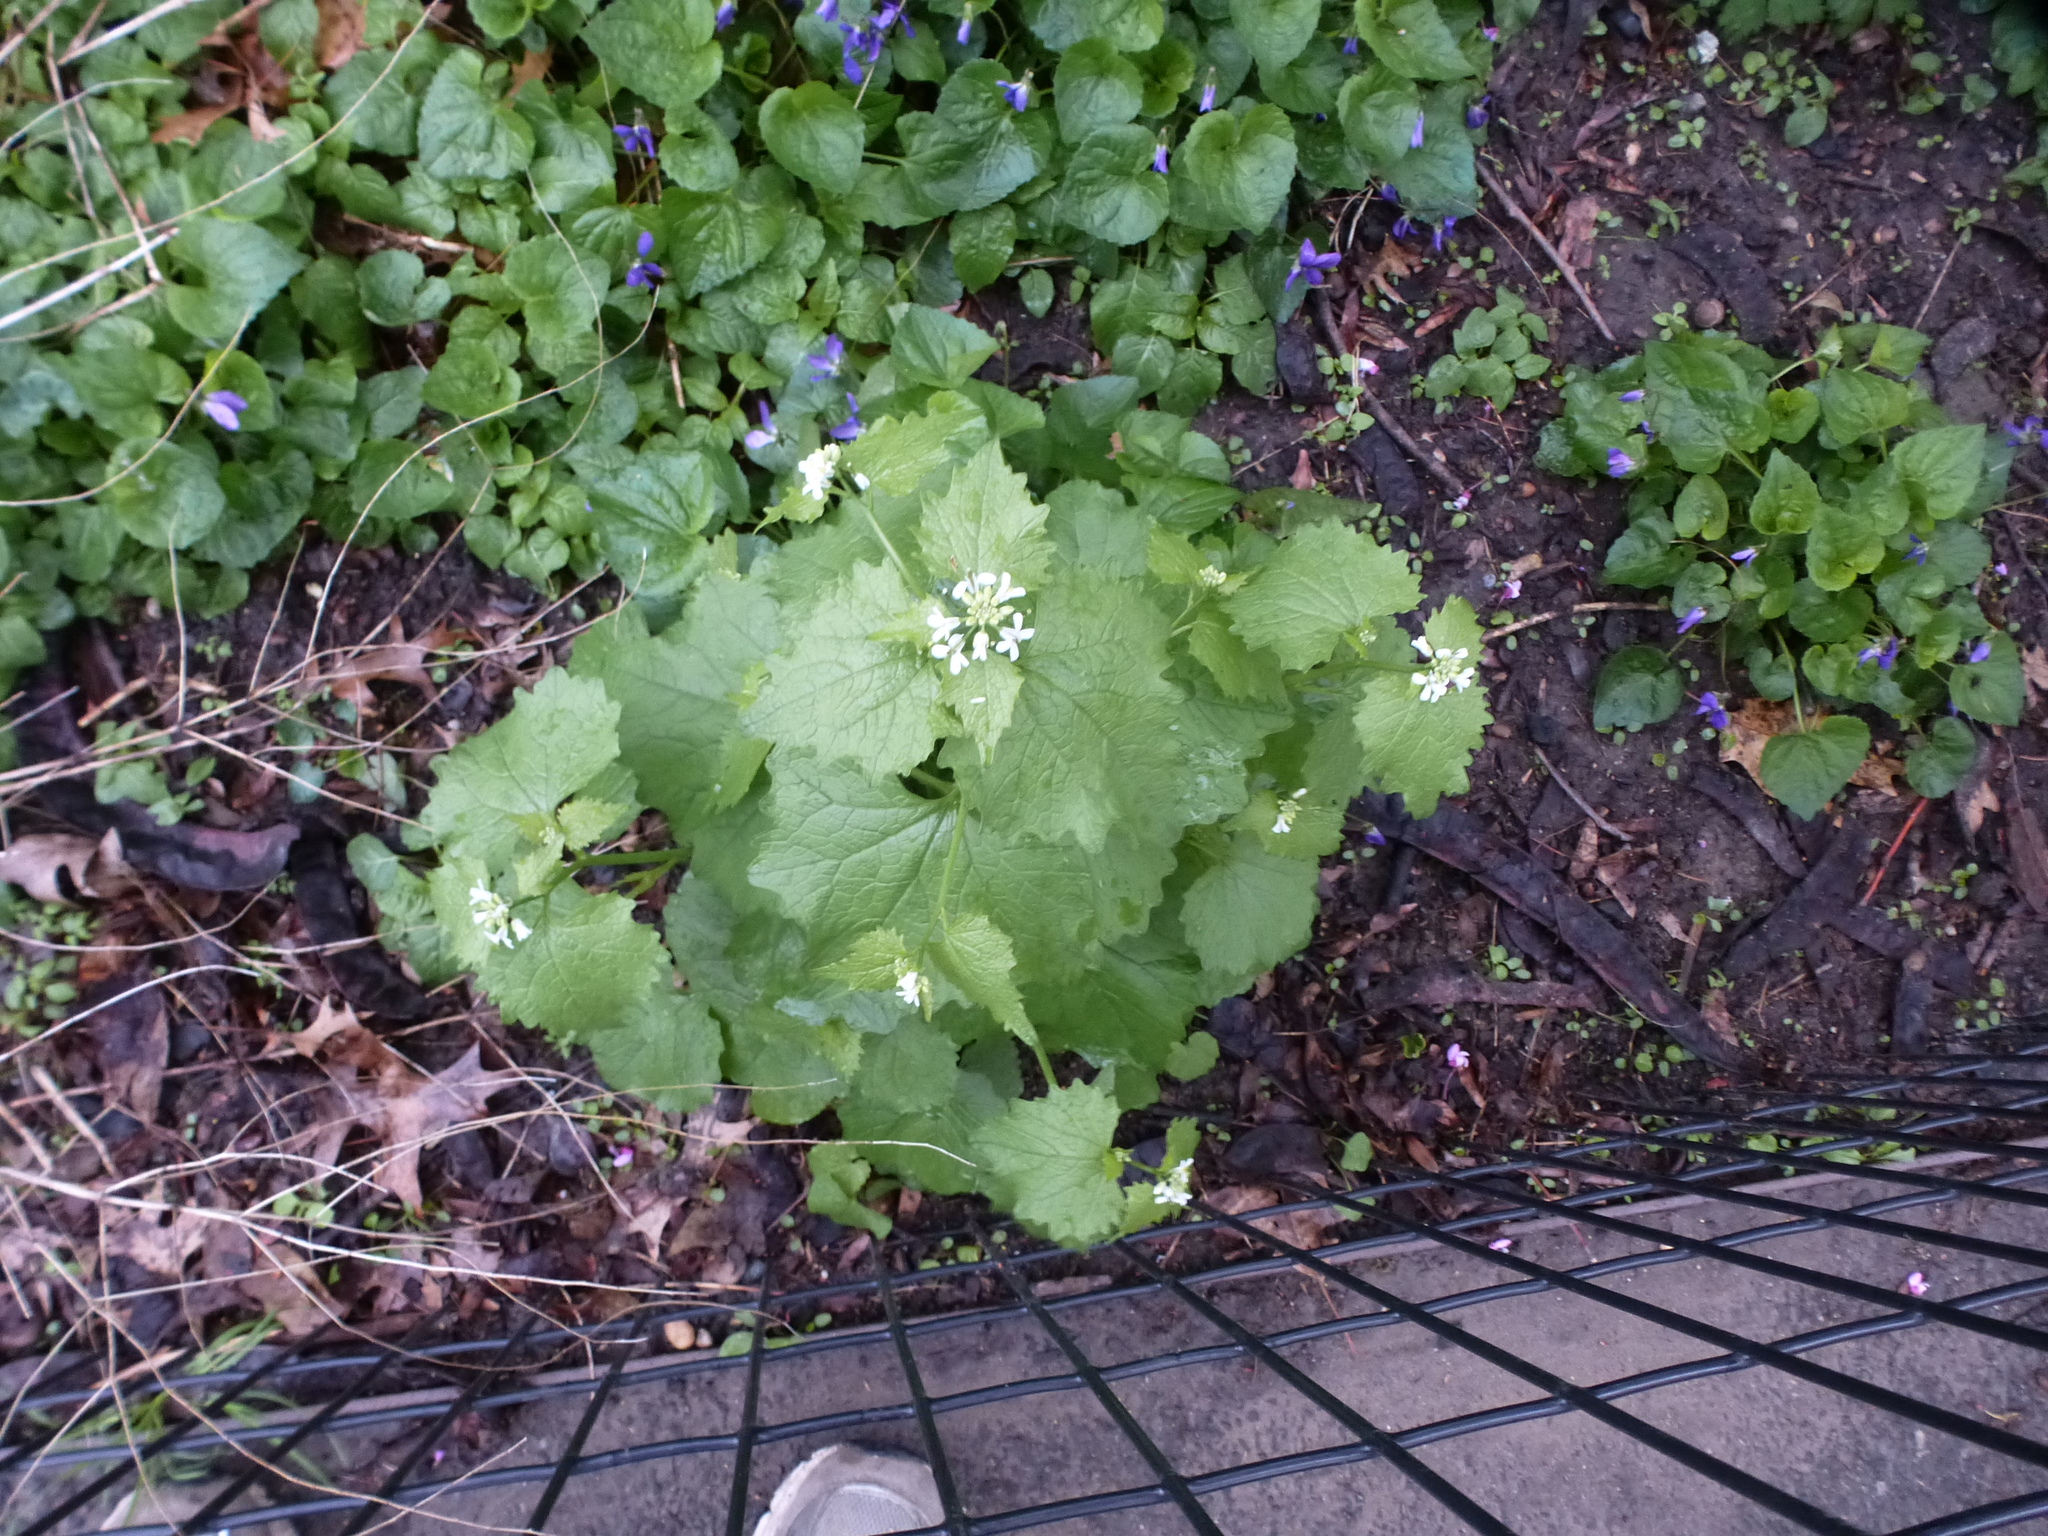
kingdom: Plantae
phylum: Tracheophyta
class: Magnoliopsida
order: Brassicales
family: Brassicaceae
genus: Alliaria
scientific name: Alliaria petiolata
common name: Garlic mustard
